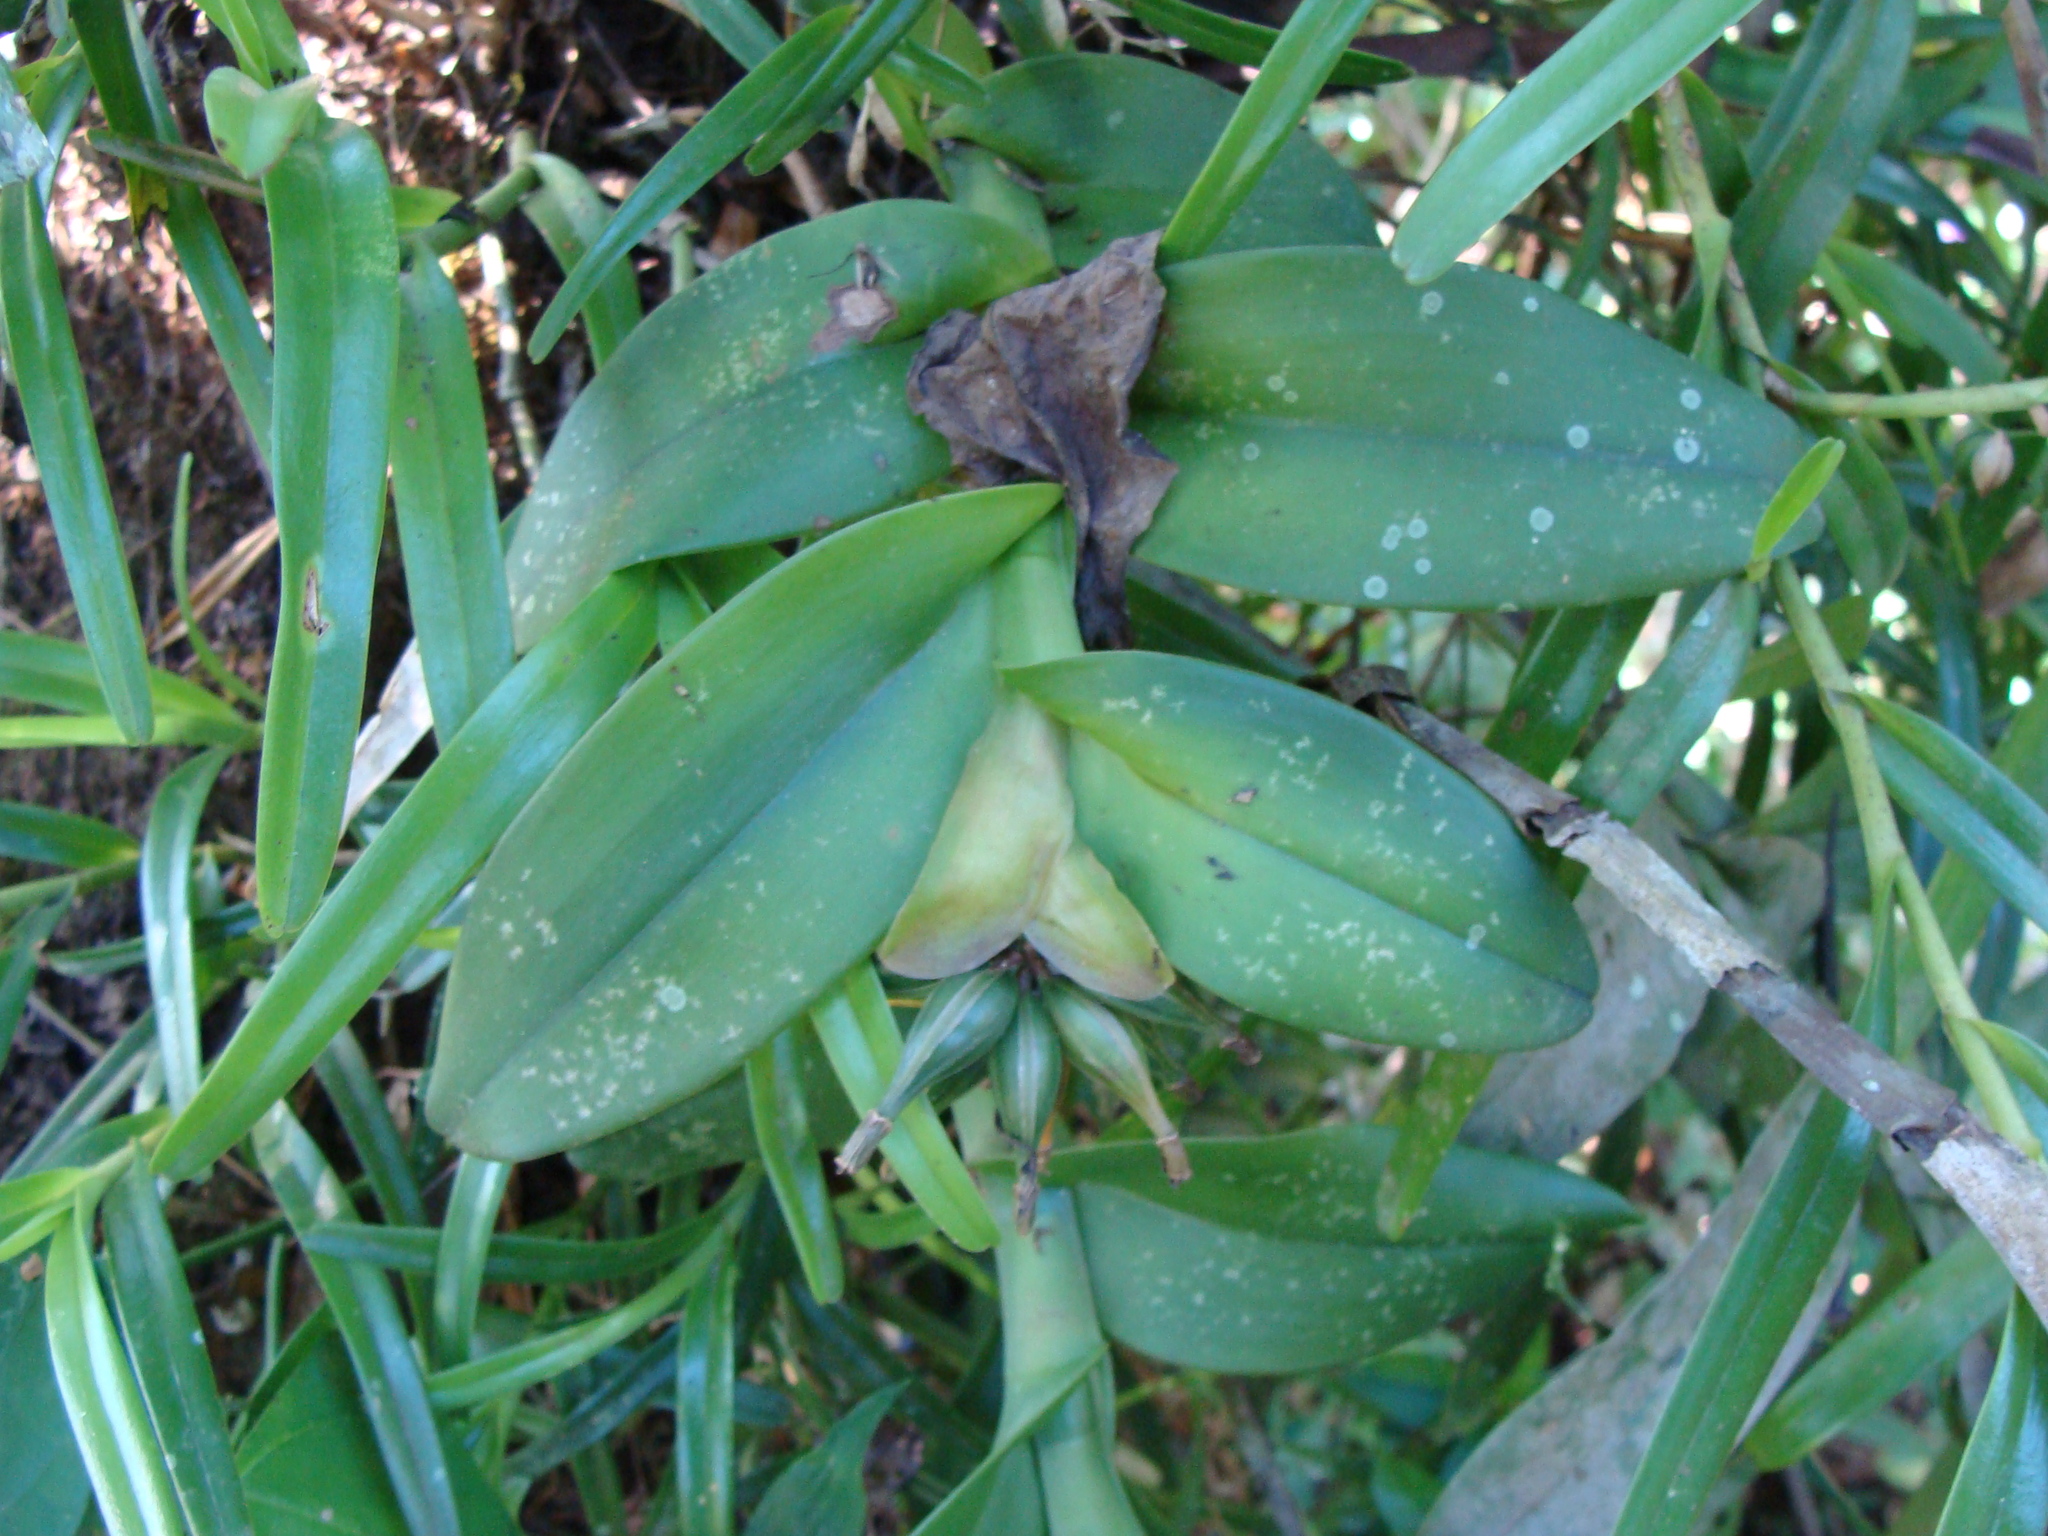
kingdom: Plantae
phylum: Tracheophyta
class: Liliopsida
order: Asparagales
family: Orchidaceae
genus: Epidendrum
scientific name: Epidendrum trianthum
